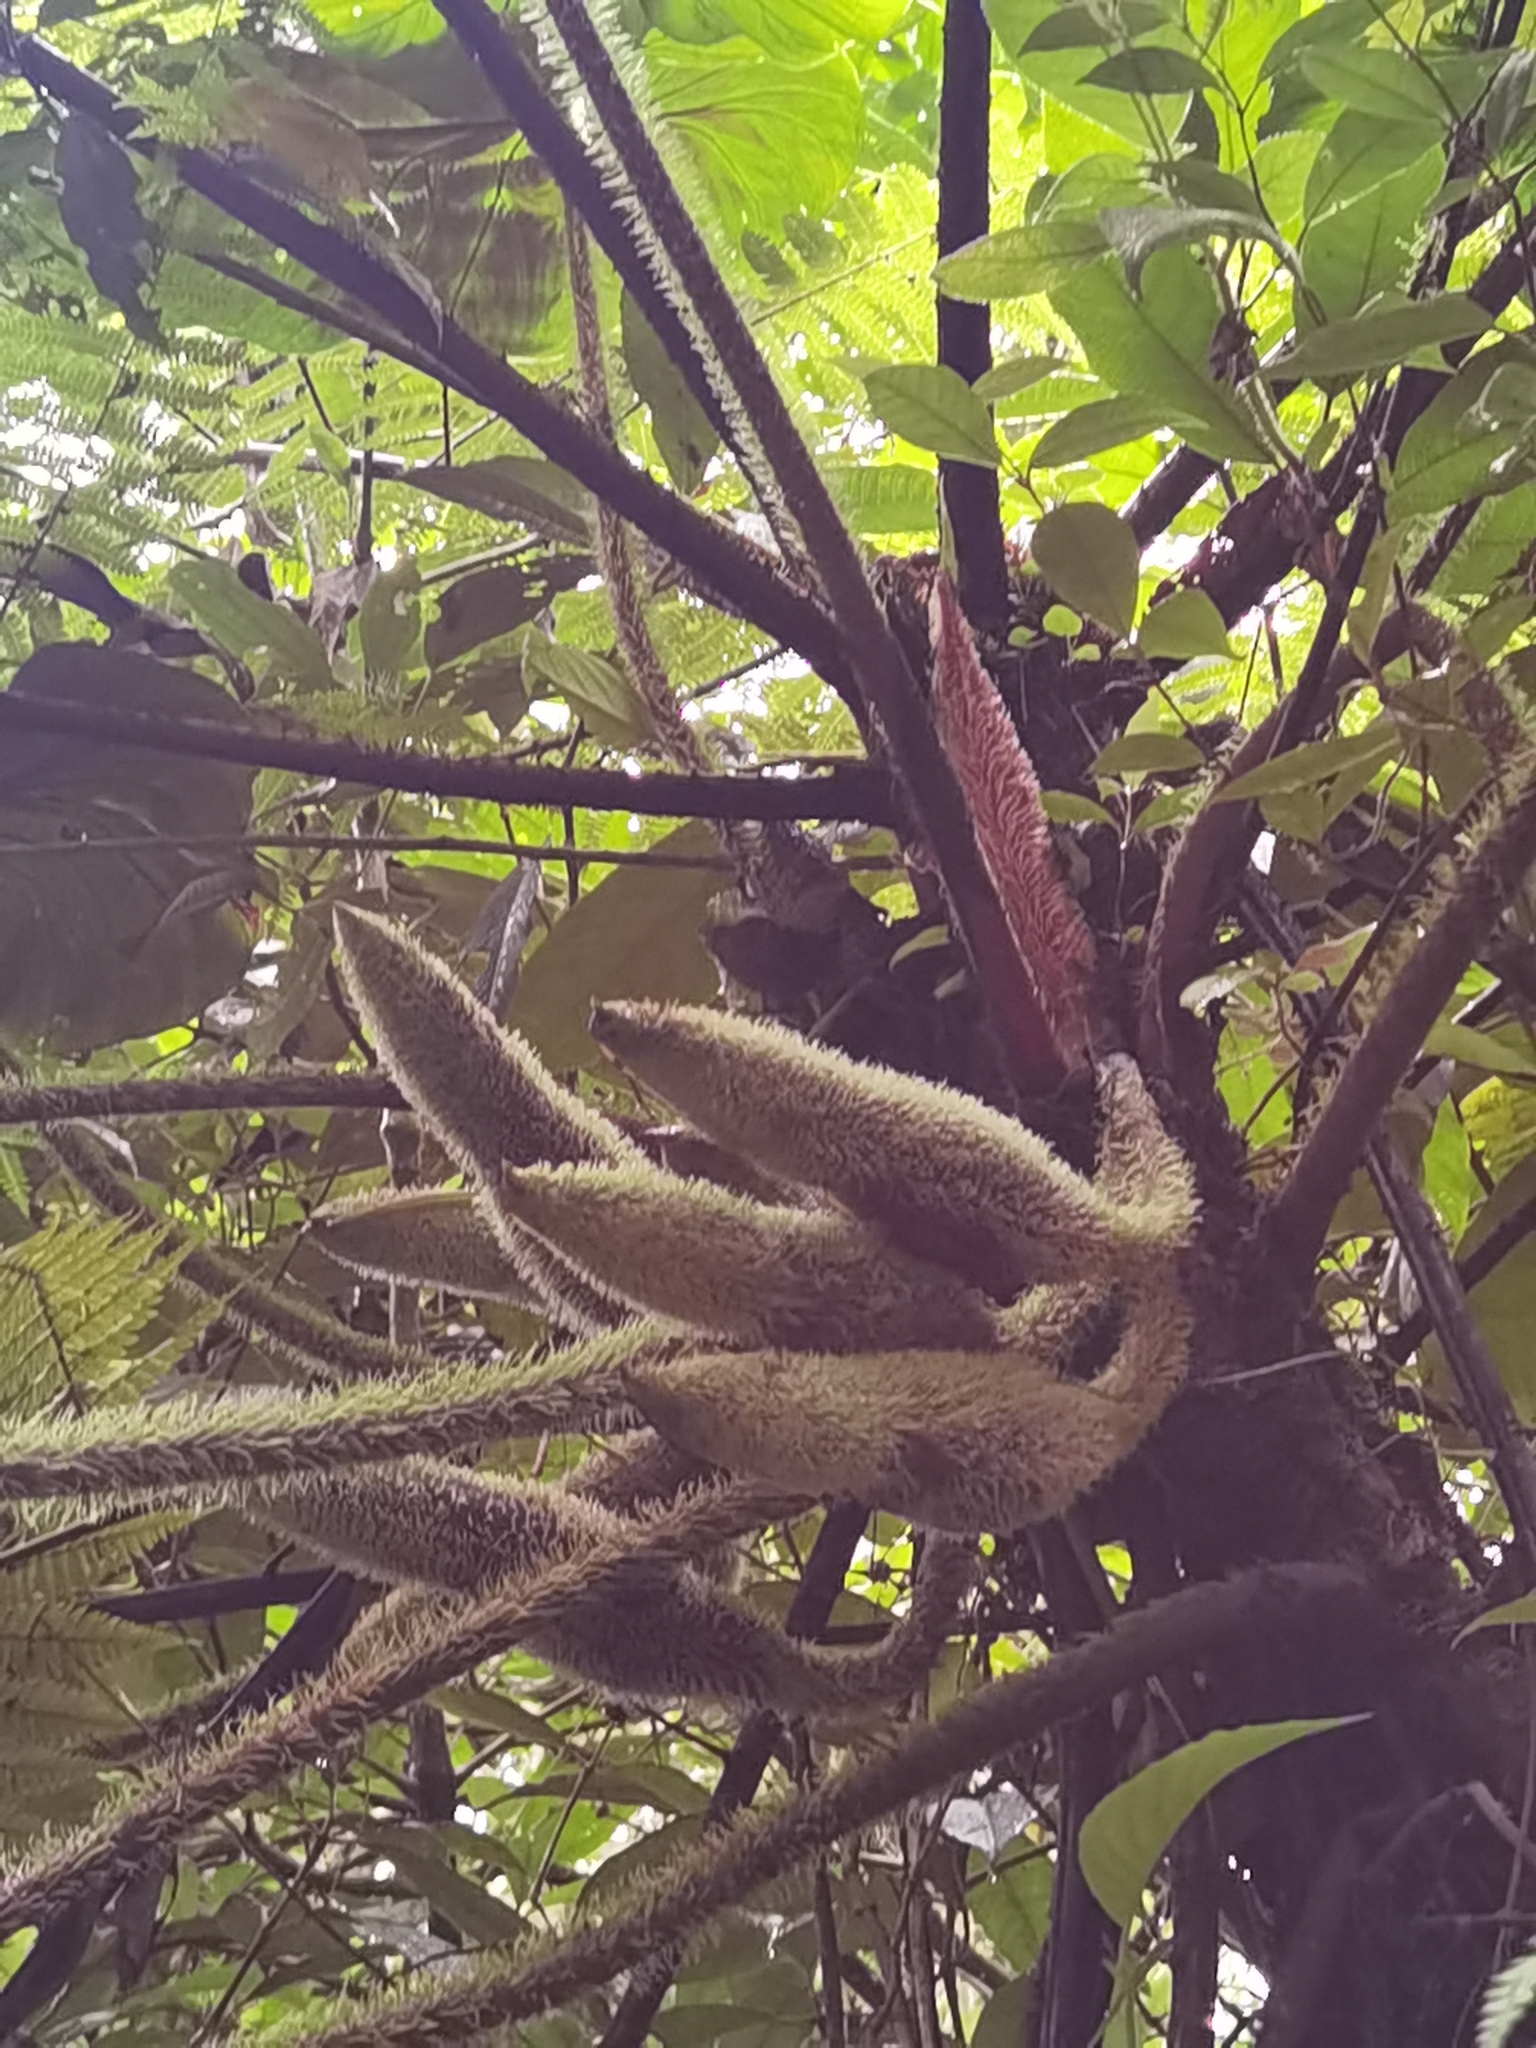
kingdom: Plantae
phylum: Tracheophyta
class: Liliopsida
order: Alismatales
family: Araceae
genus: Philodendron
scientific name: Philodendron verrucosum
